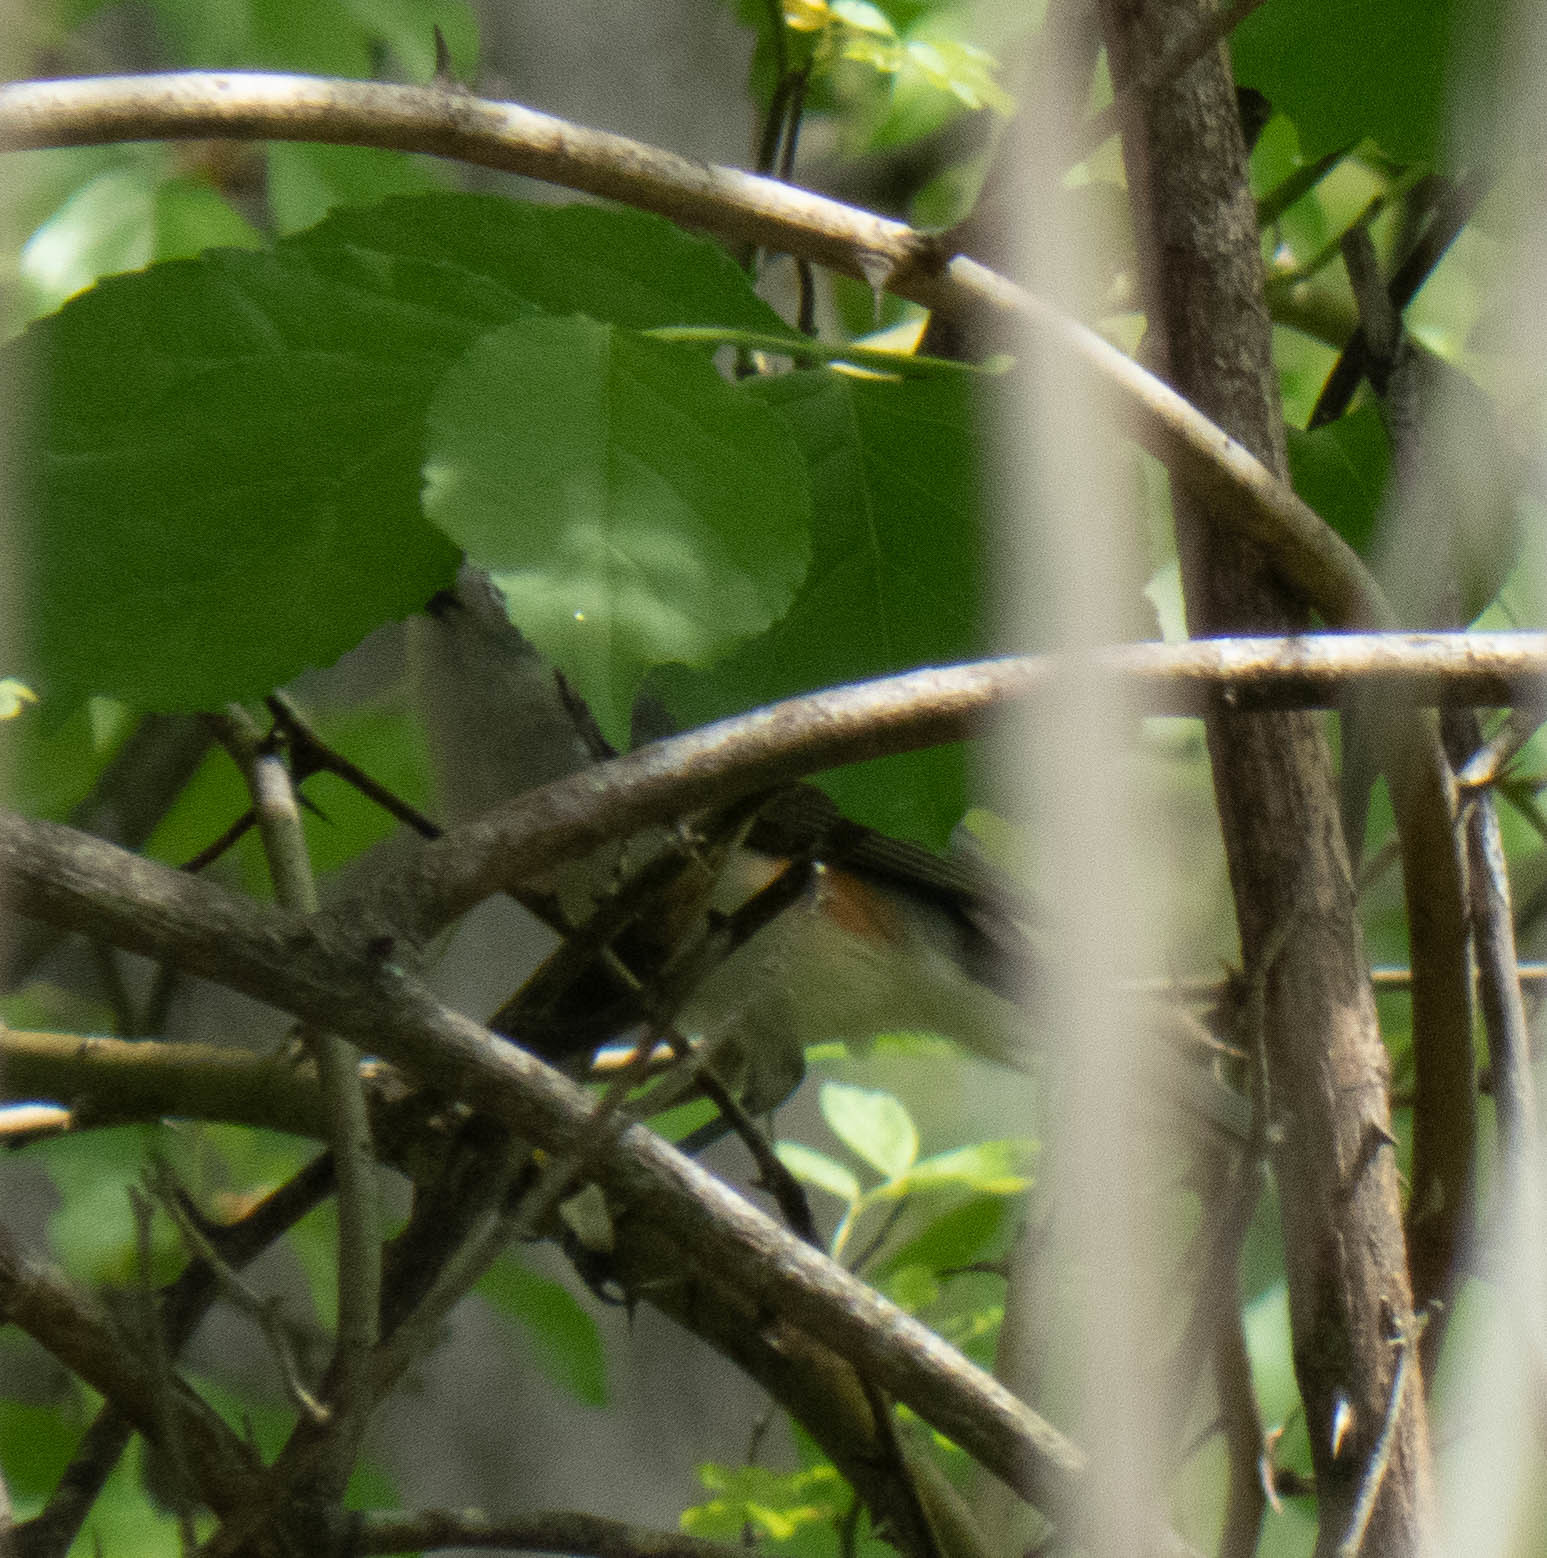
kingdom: Animalia
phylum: Chordata
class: Aves
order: Passeriformes
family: Paridae
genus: Baeolophus
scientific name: Baeolophus bicolor
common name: Tufted titmouse
